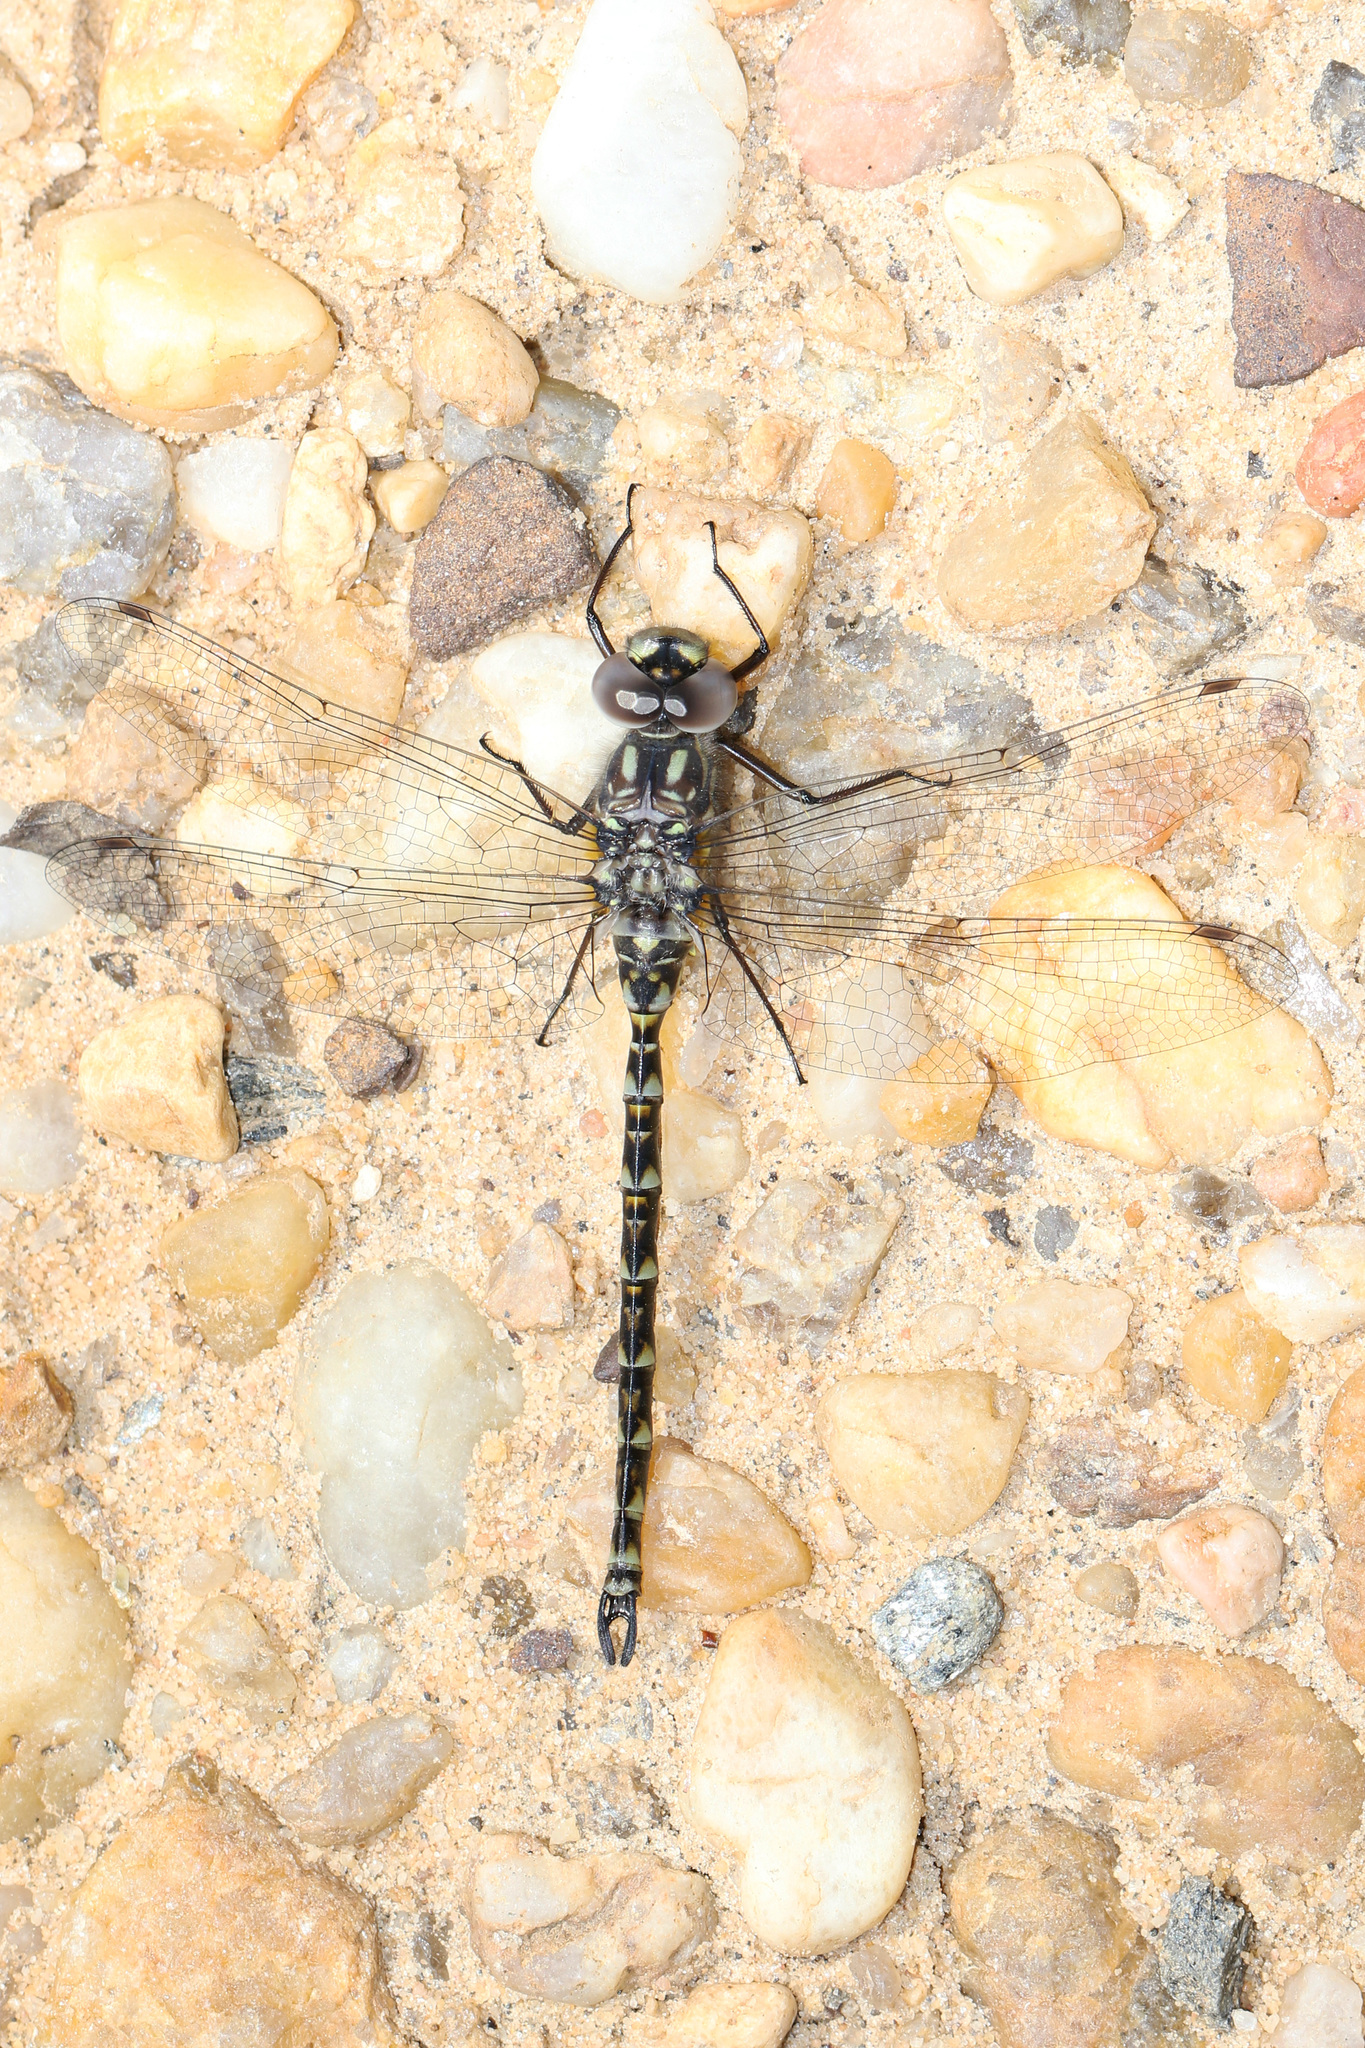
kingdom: Animalia
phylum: Arthropoda
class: Insecta
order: Odonata
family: Aeshnidae
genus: Gomphaeschna
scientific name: Gomphaeschna furcillata
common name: Harlequin darner
